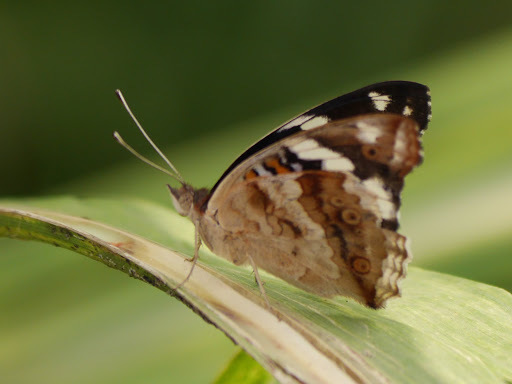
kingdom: Animalia
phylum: Arthropoda
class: Insecta
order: Lepidoptera
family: Nymphalidae
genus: Junonia
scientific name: Junonia oenone
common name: Dark blue pansy
